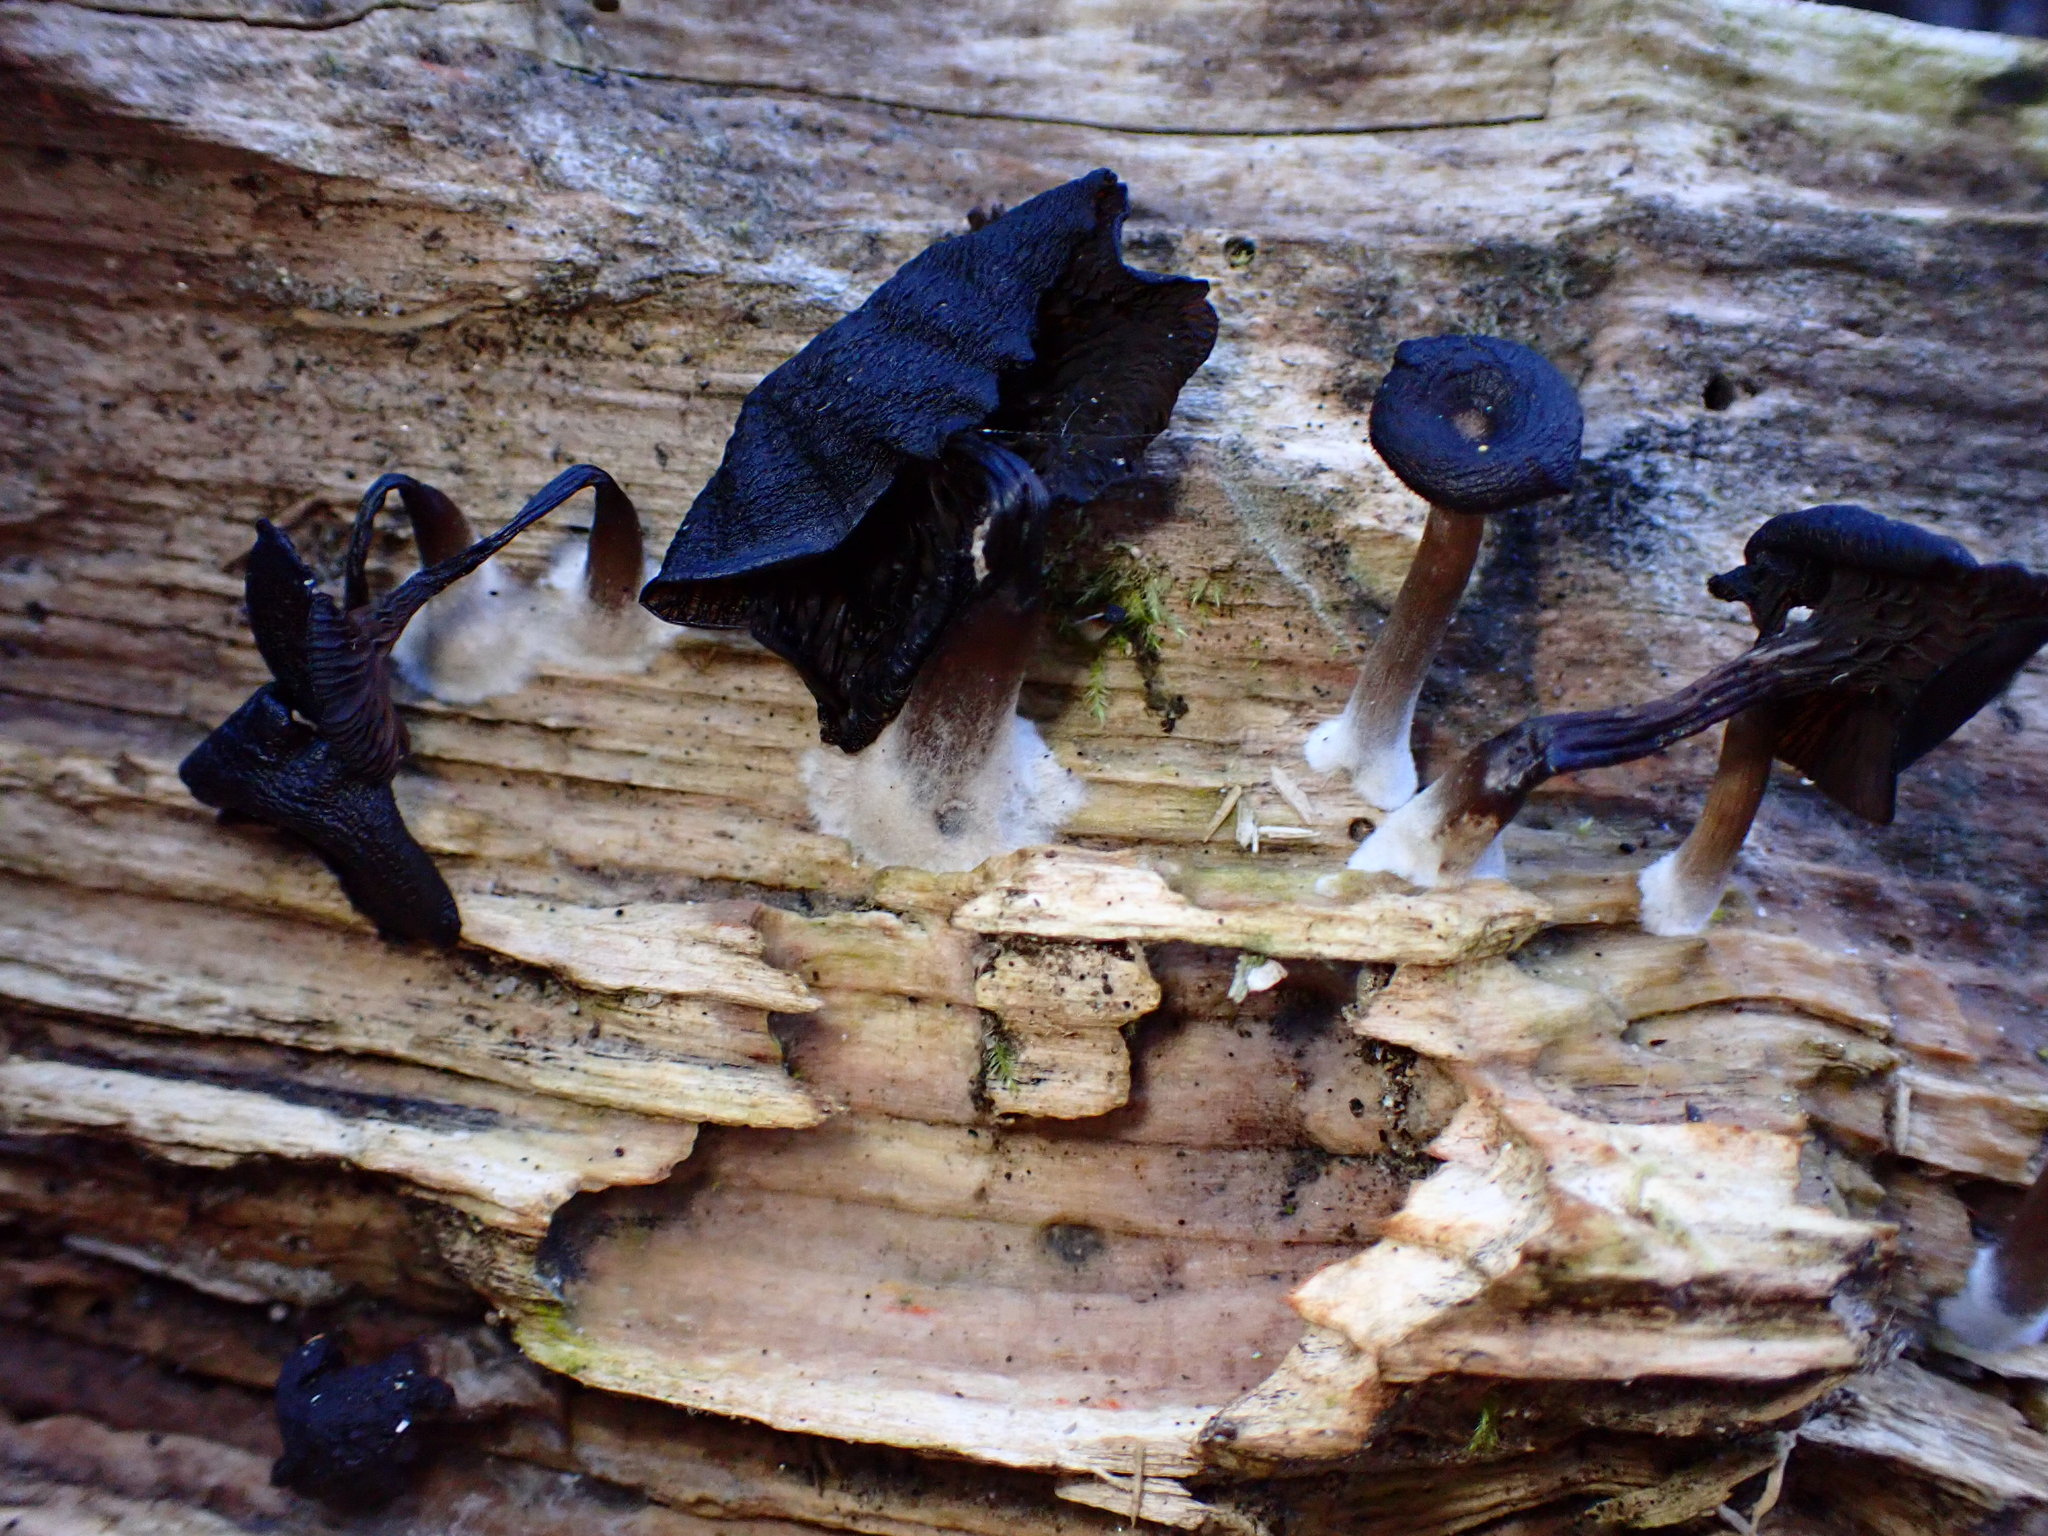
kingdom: Fungi
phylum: Basidiomycota
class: Agaricomycetes
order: Agaricales
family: Hygrophoraceae
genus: Arrhenia
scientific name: Arrhenia epichysium
